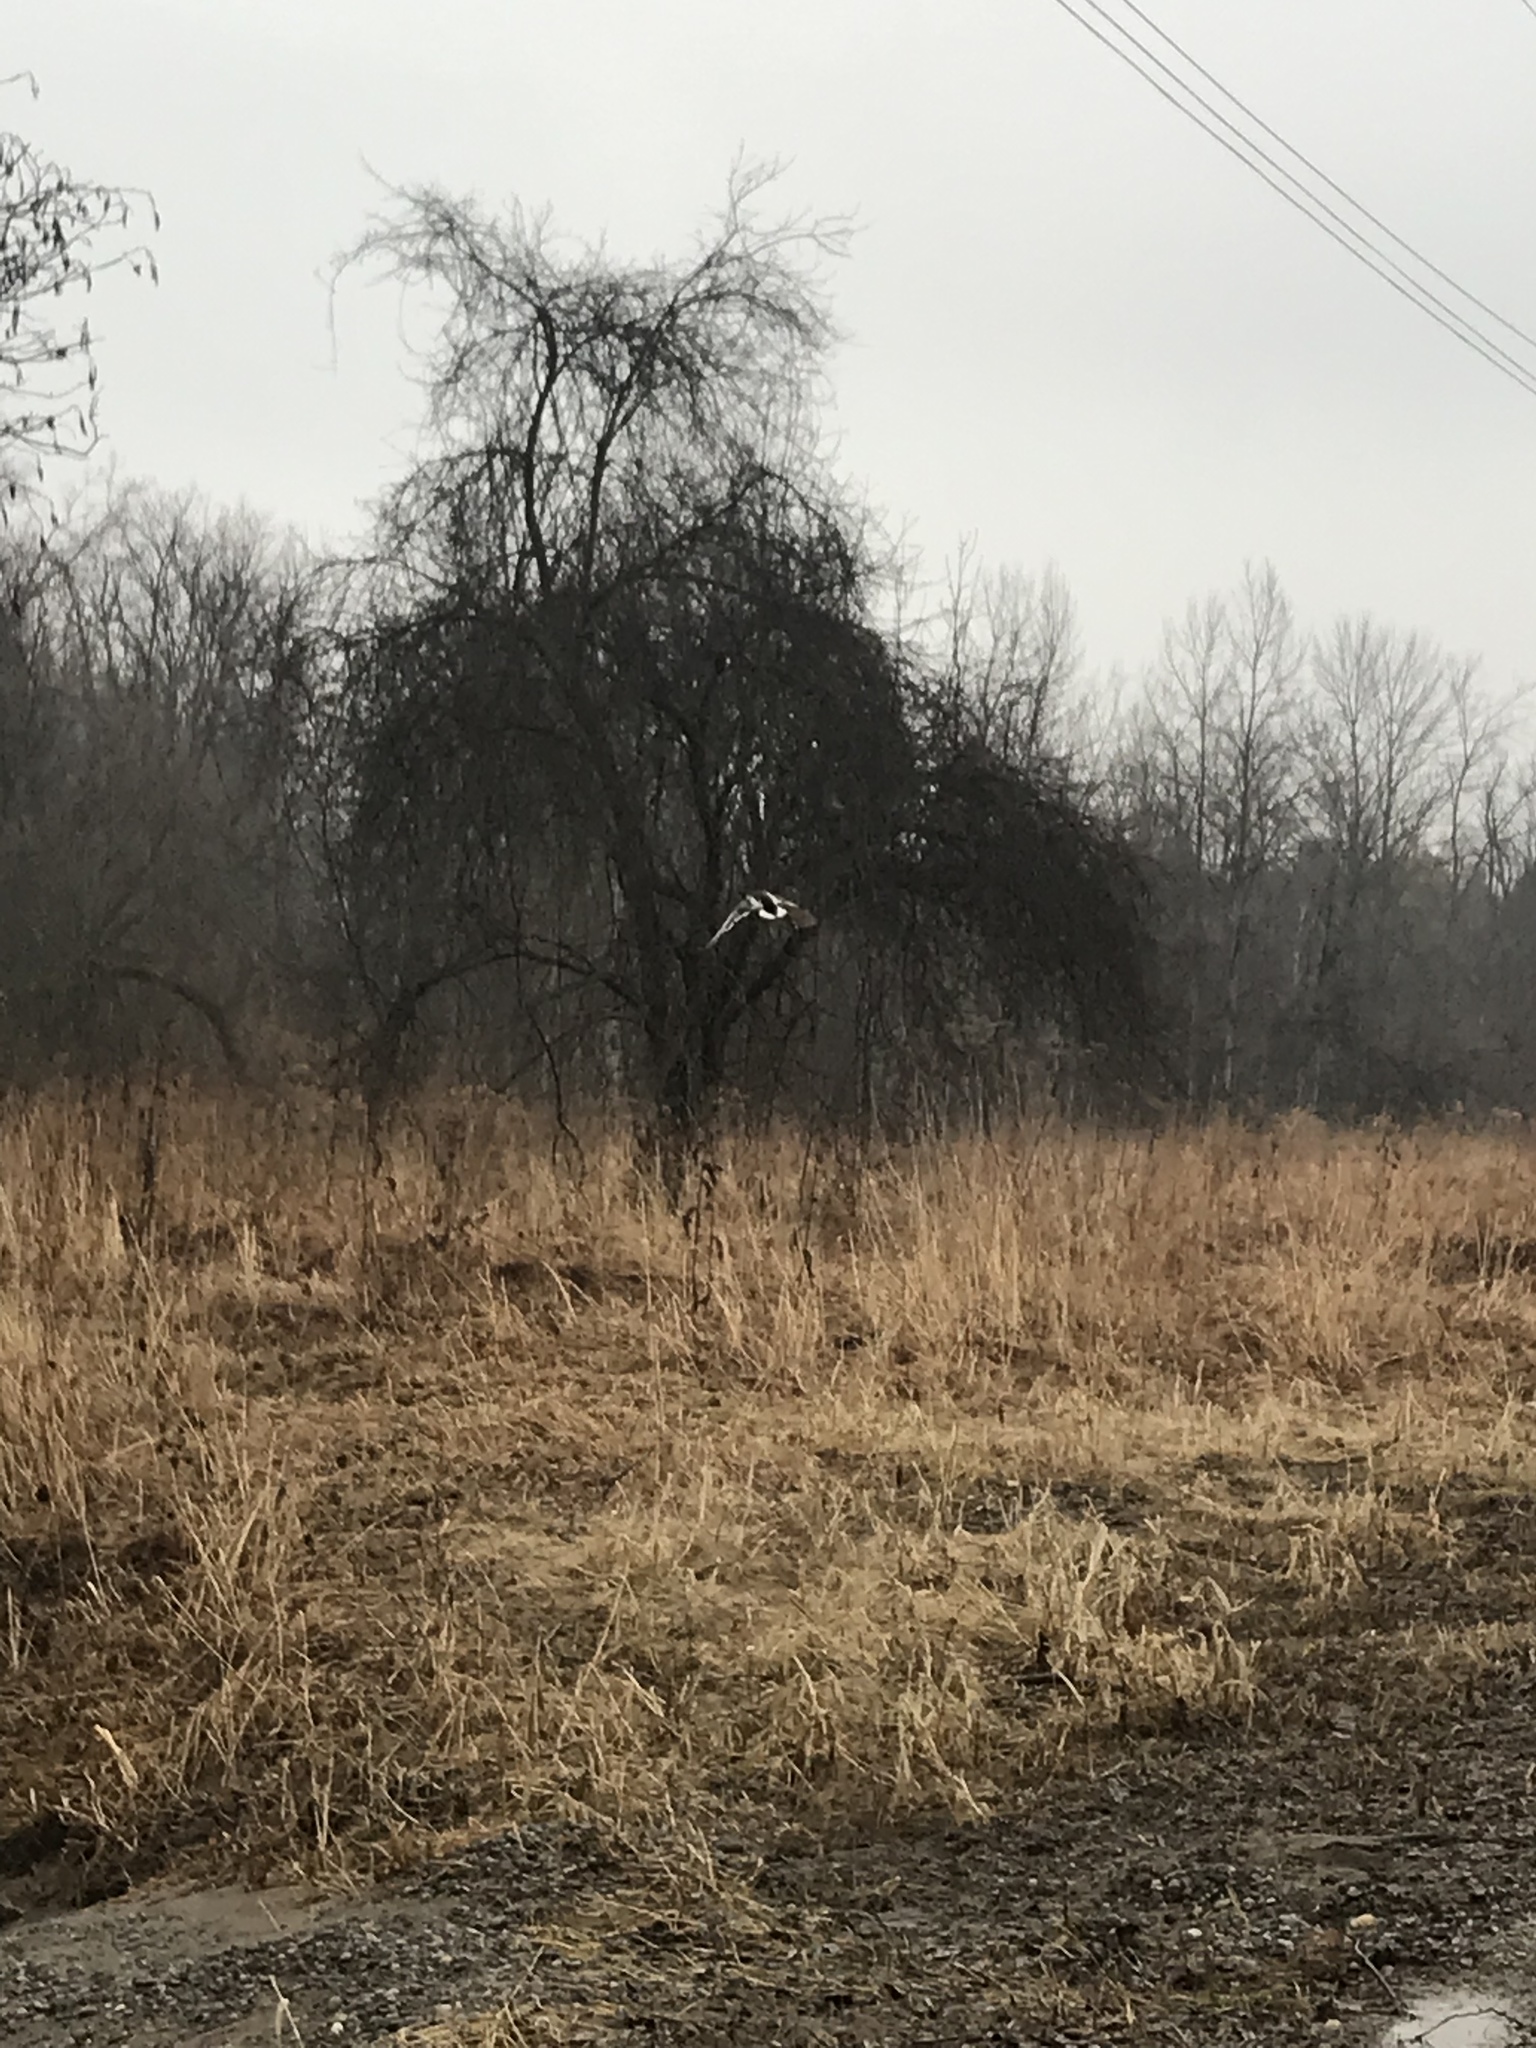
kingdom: Animalia
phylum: Chordata
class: Aves
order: Anseriformes
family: Anatidae
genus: Anas
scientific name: Anas platyrhynchos
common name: Mallard
